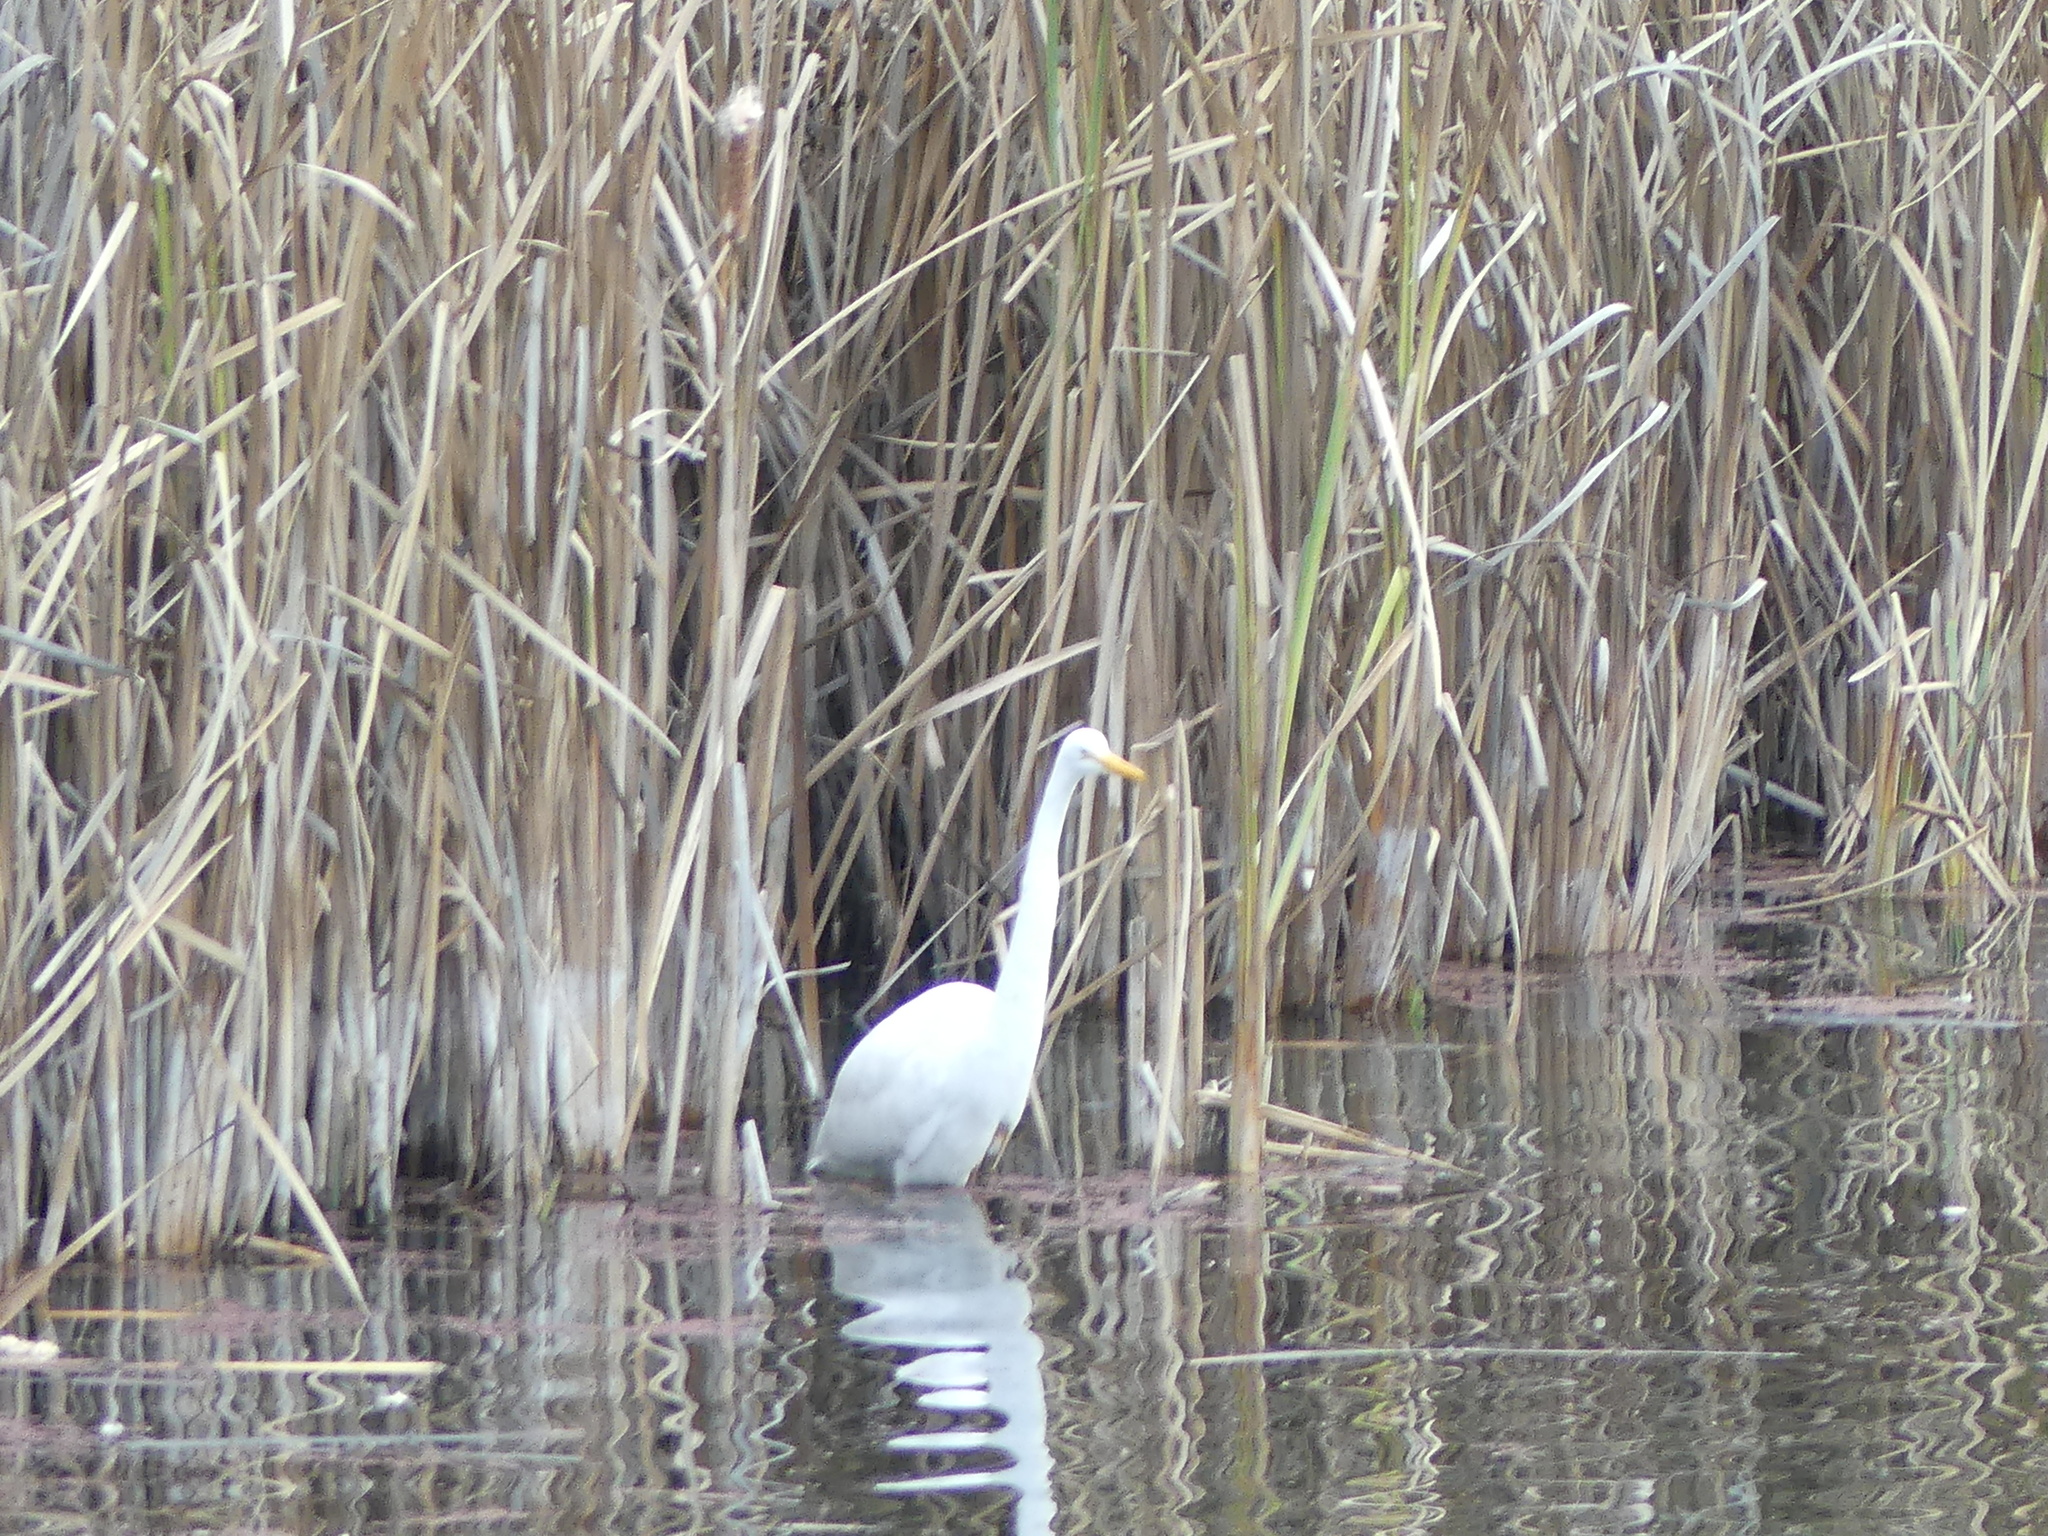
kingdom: Animalia
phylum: Chordata
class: Aves
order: Pelecaniformes
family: Ardeidae
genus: Ardea
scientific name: Ardea alba
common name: Great egret
